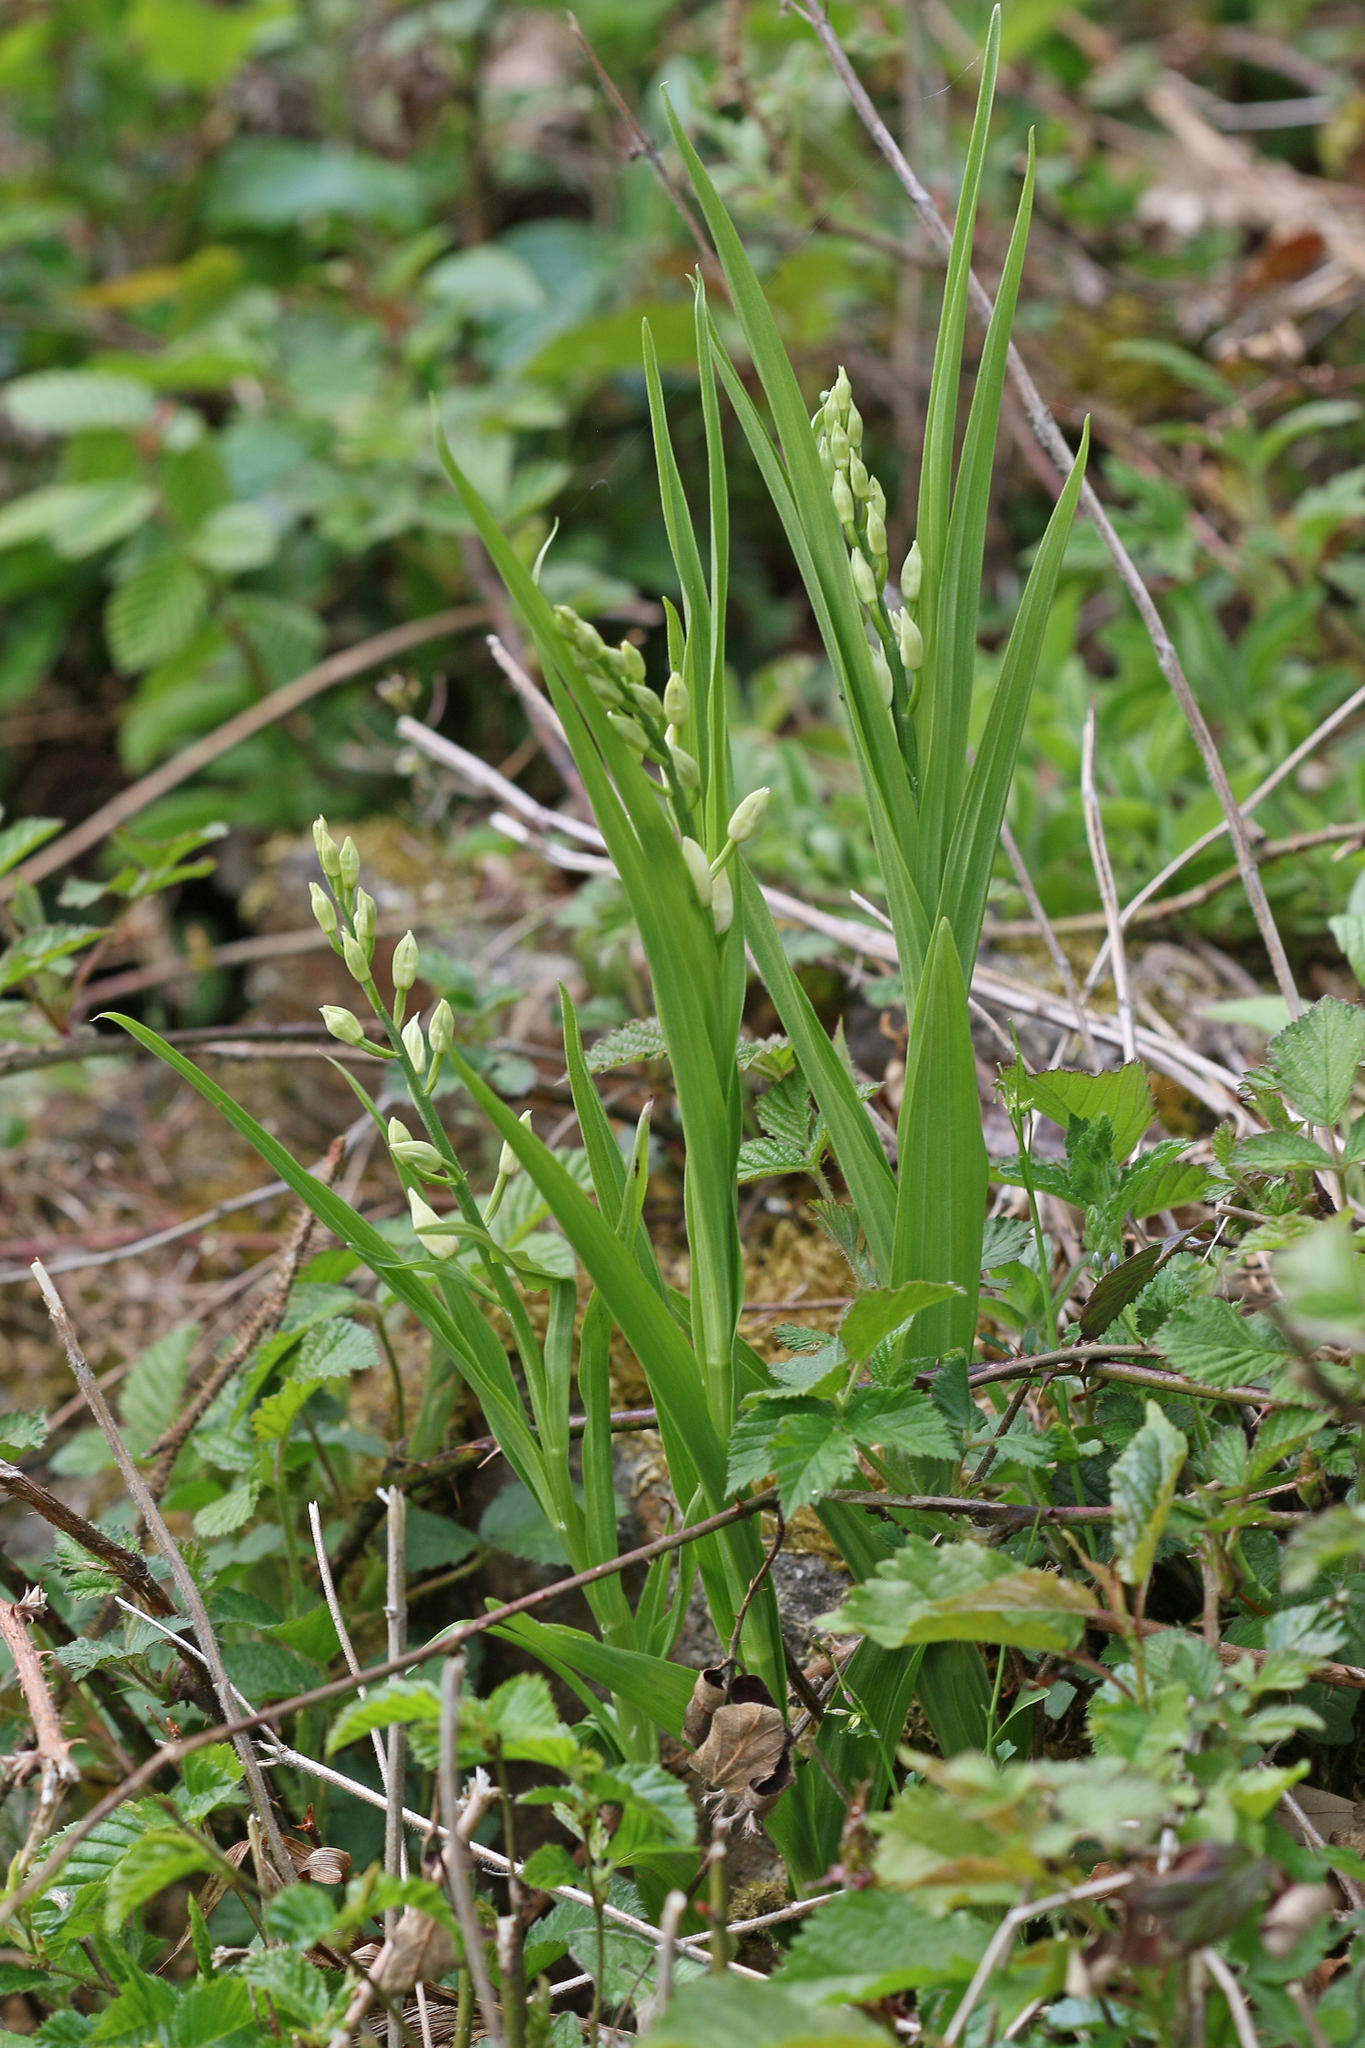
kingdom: Plantae
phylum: Tracheophyta
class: Liliopsida
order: Asparagales
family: Orchidaceae
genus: Cephalanthera
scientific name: Cephalanthera longifolia
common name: Narrow-leaved helleborine
